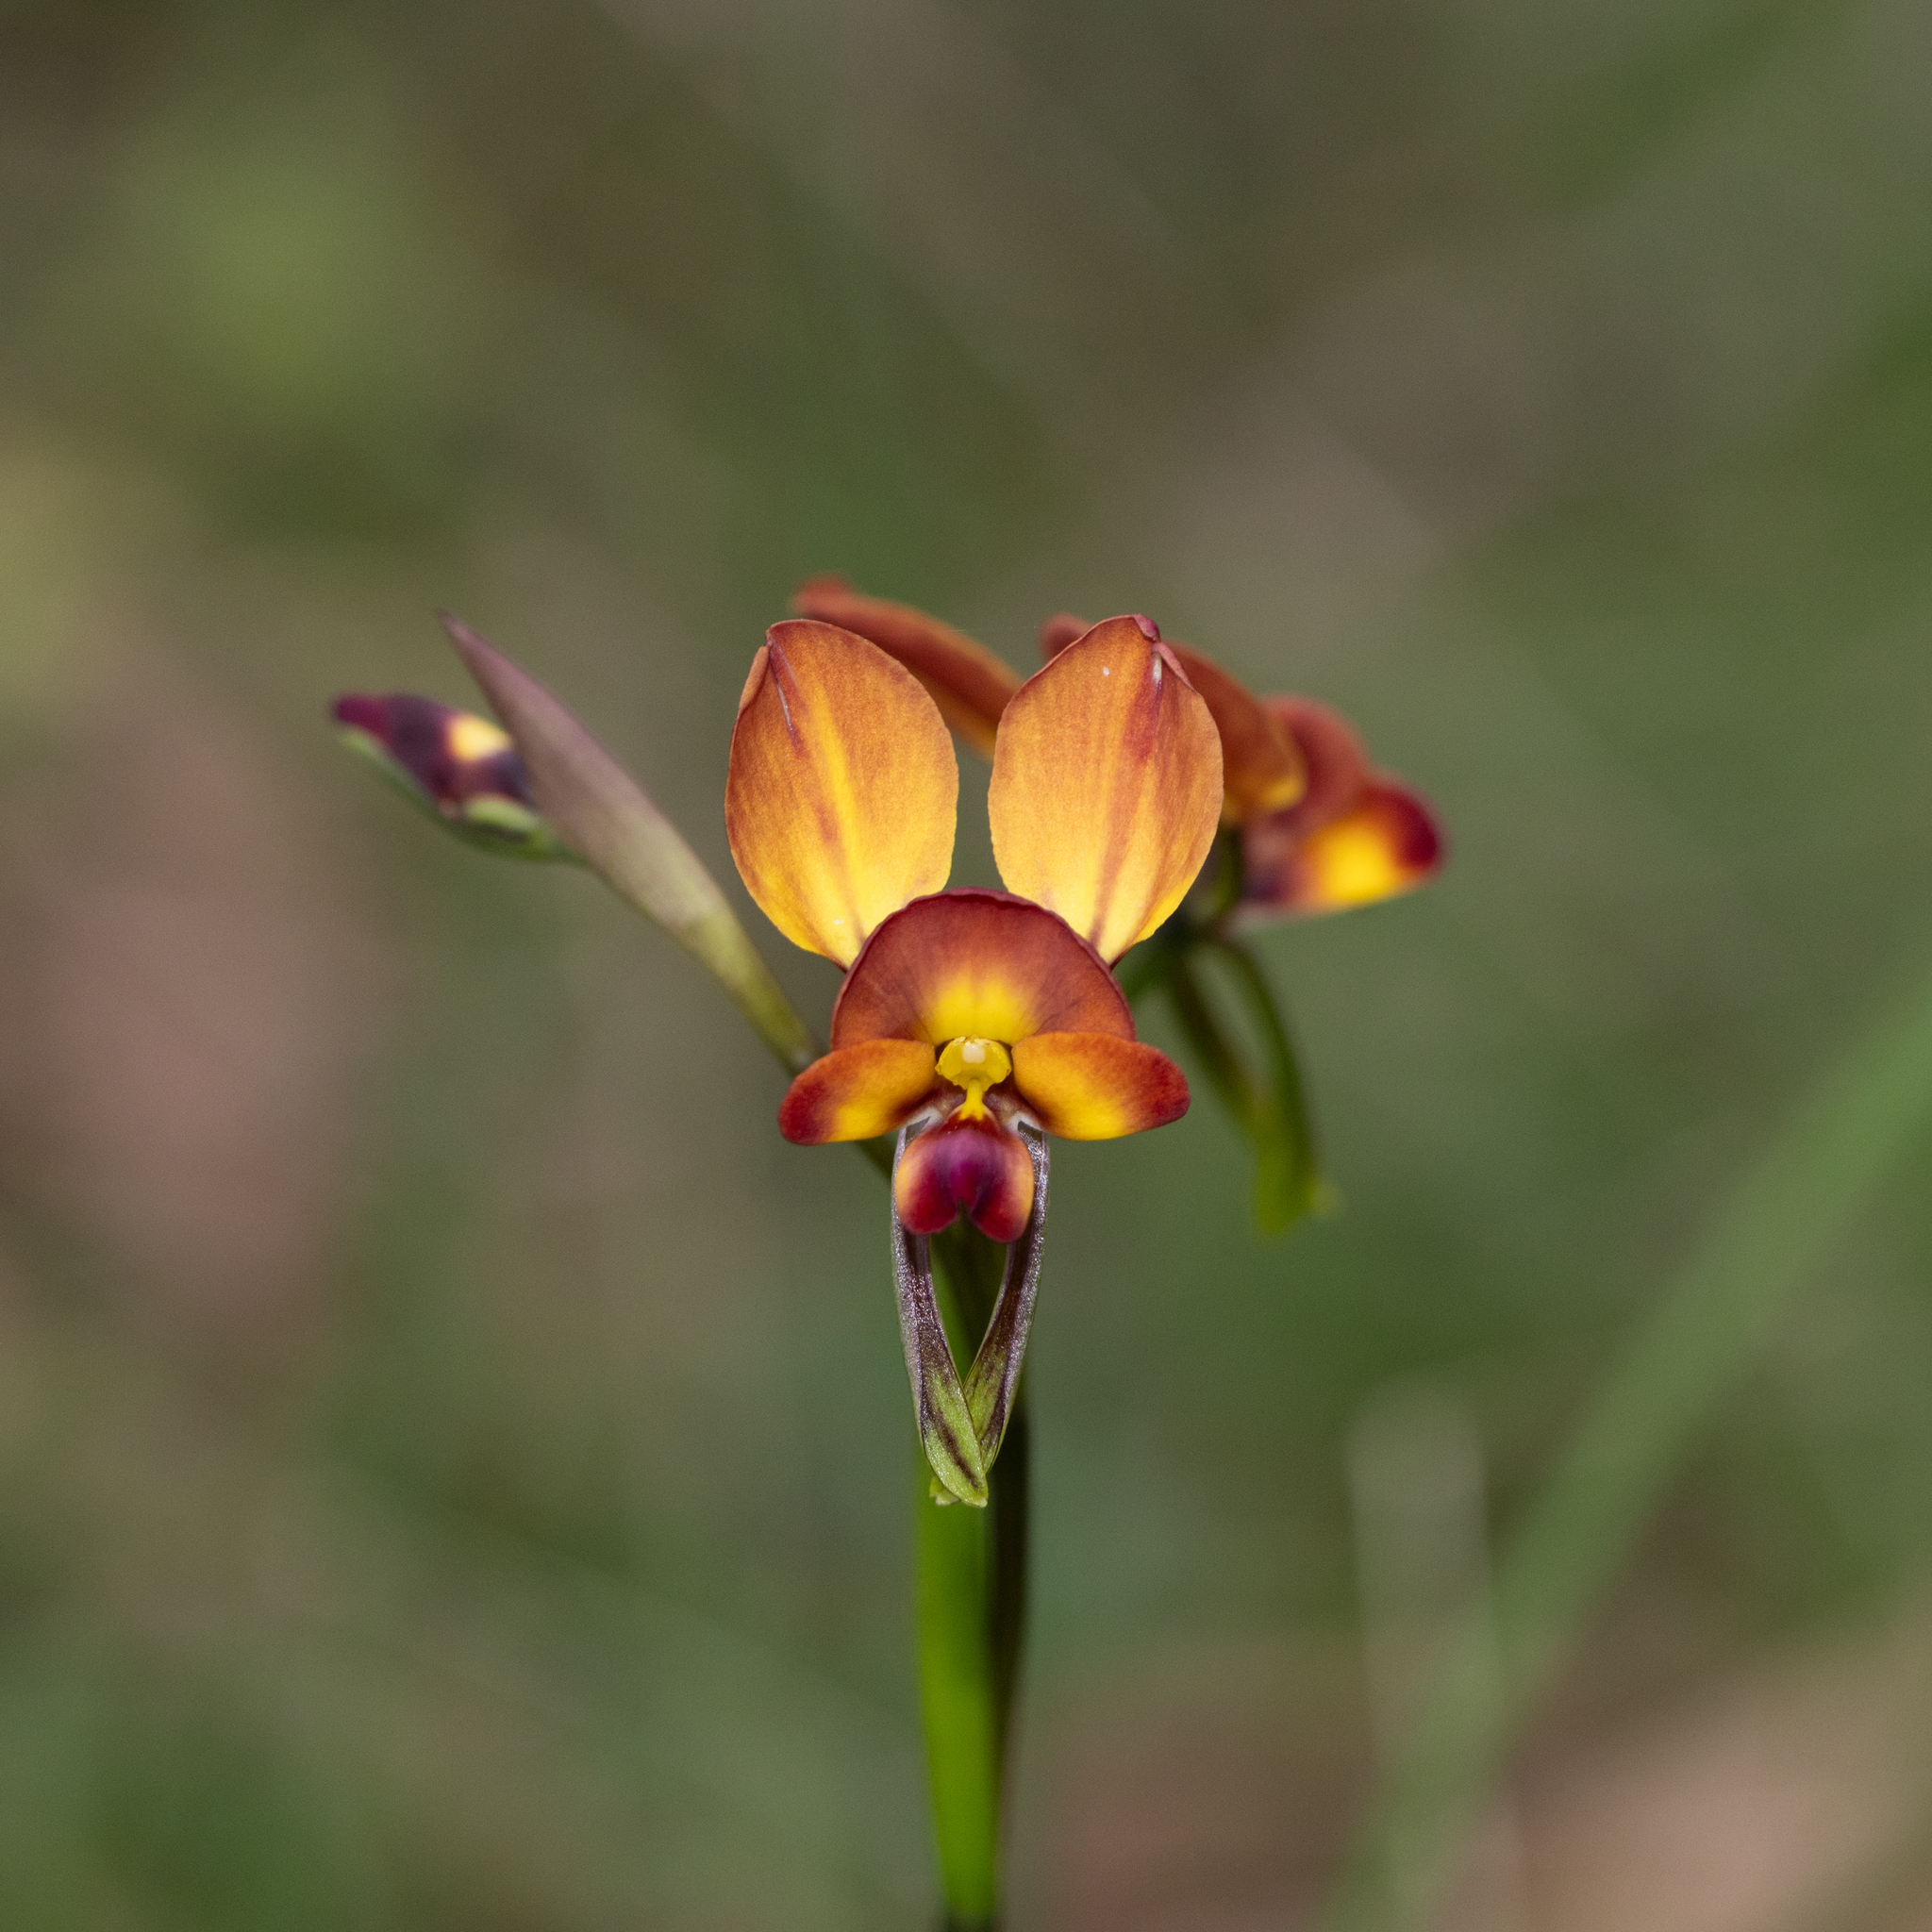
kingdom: Plantae
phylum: Tracheophyta
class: Liliopsida
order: Asparagales
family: Orchidaceae
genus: Diuris
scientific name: Diuris orientis
